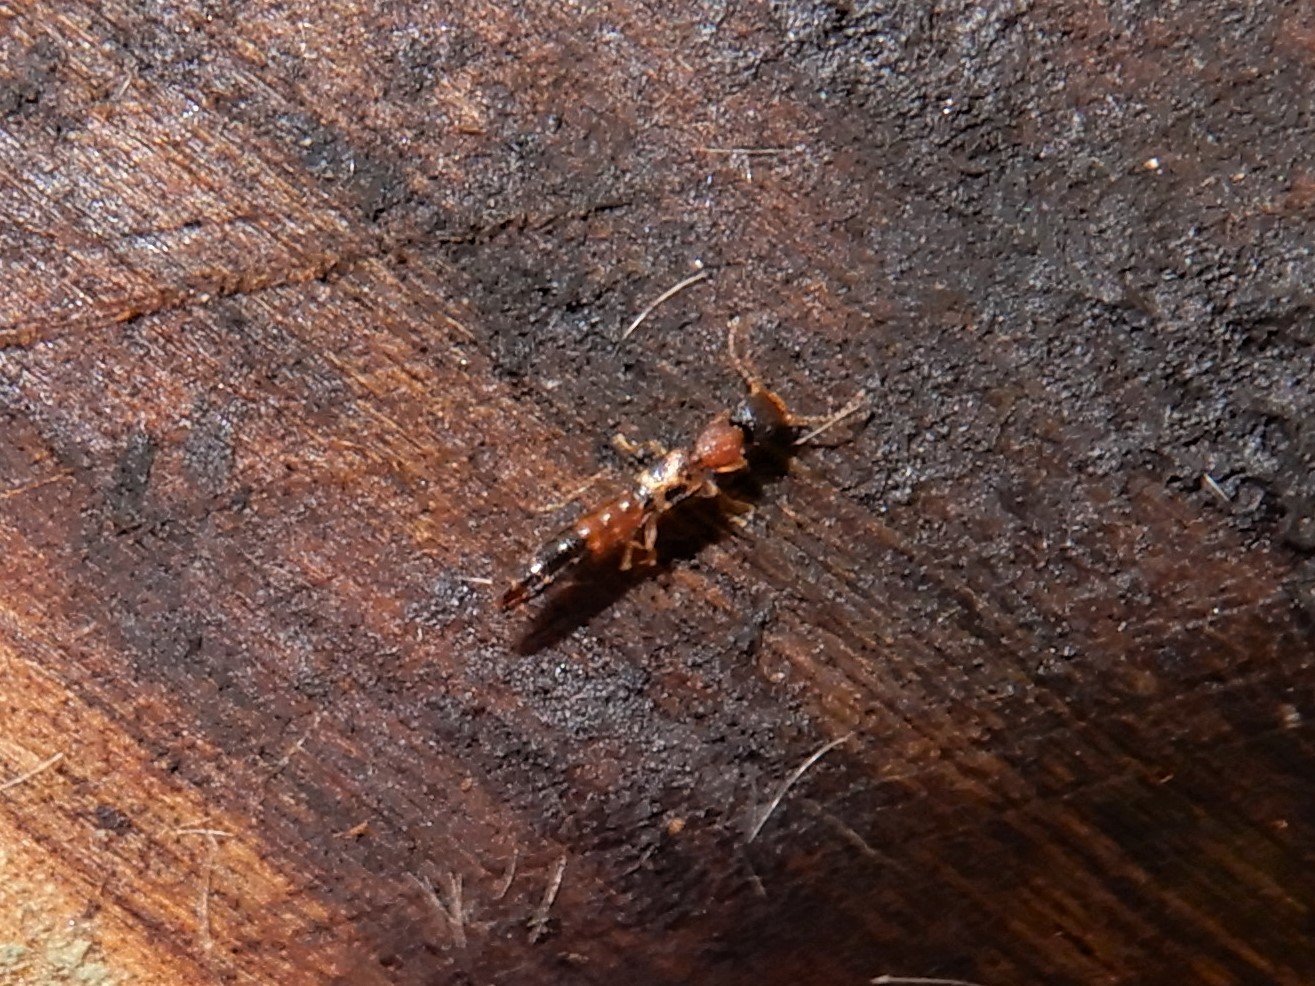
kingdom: Animalia
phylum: Arthropoda
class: Insecta
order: Coleoptera
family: Staphylinidae
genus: Astenus
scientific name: Astenus guttulus
